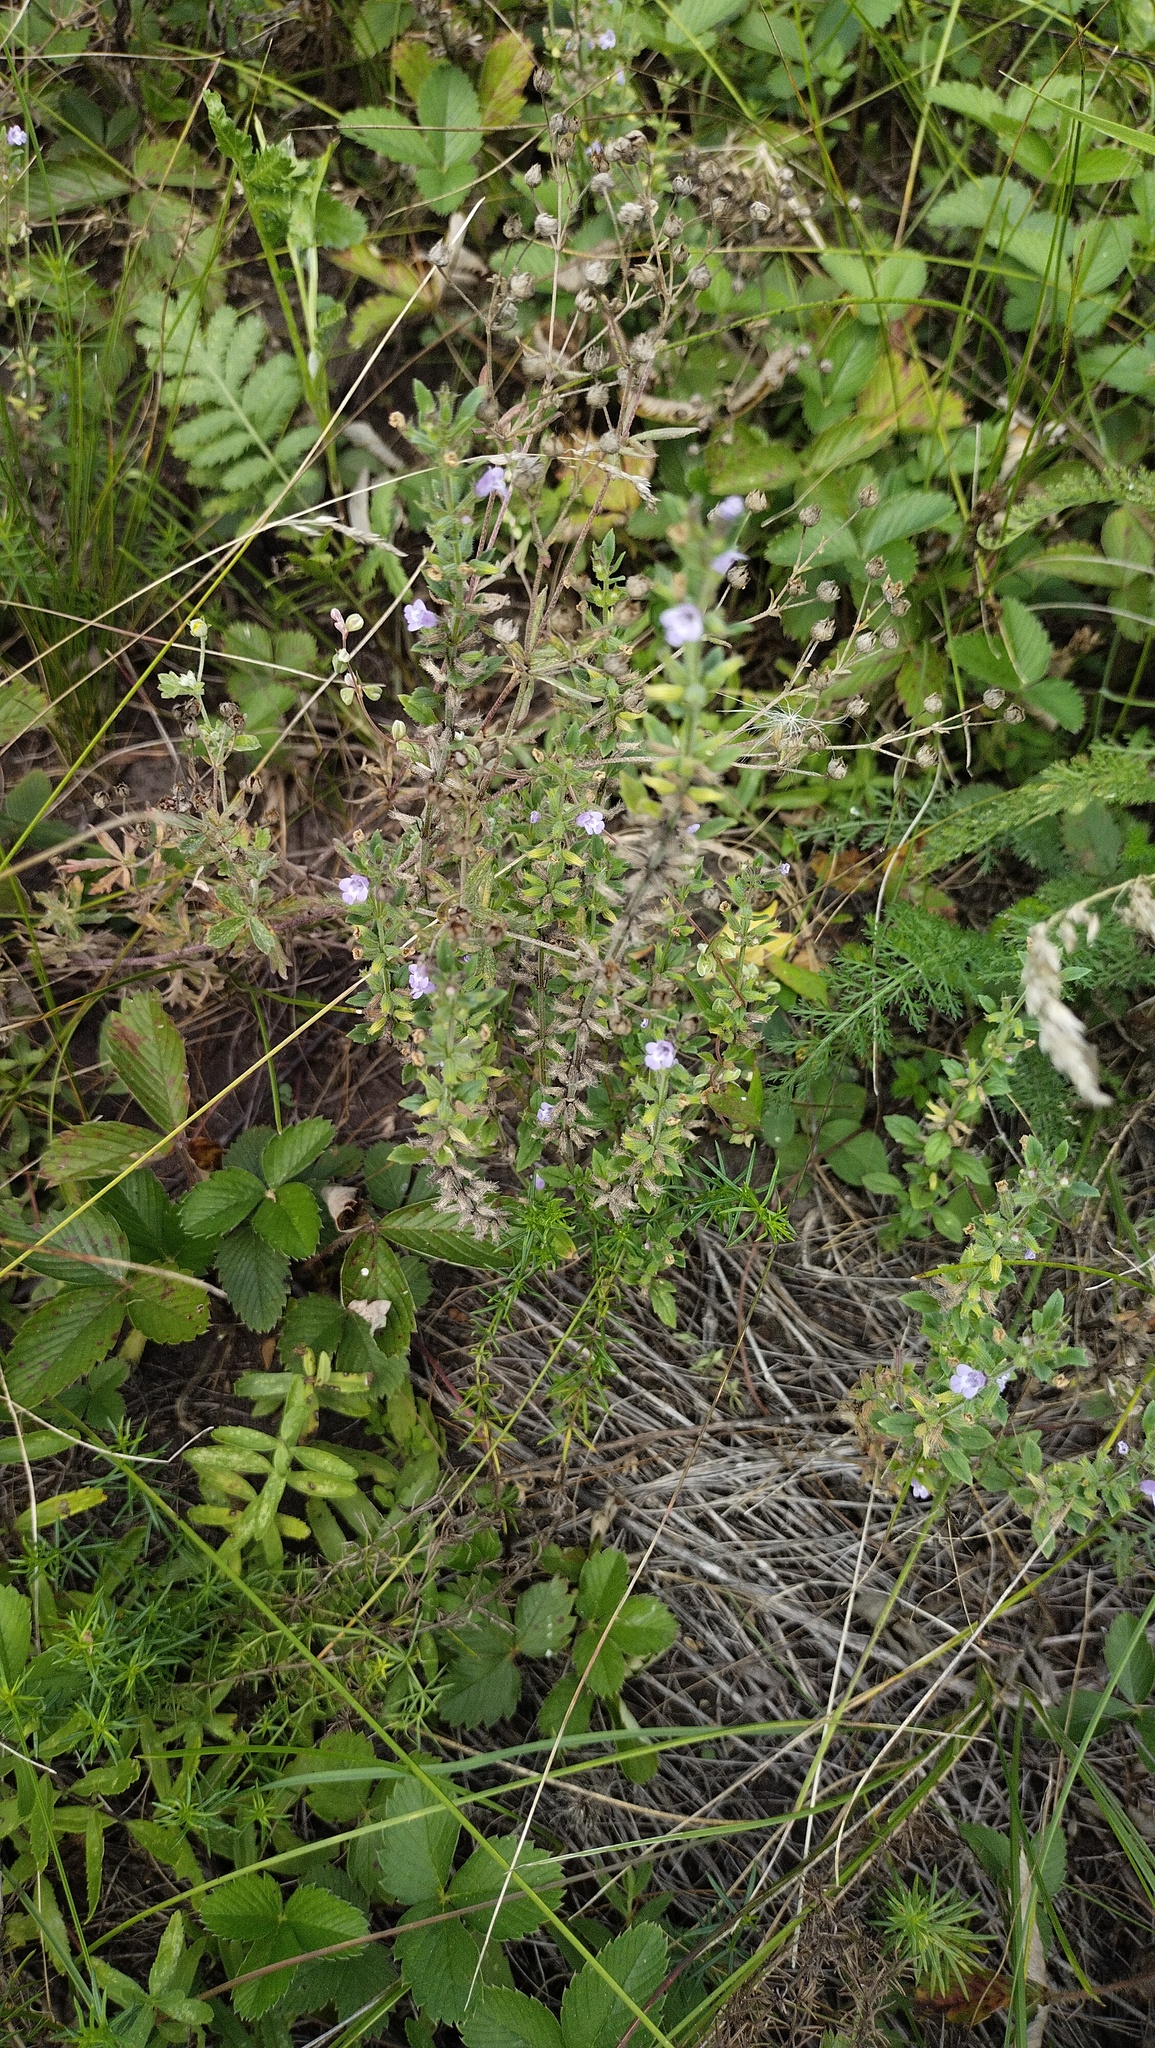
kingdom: Plantae
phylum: Tracheophyta
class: Magnoliopsida
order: Lamiales
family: Lamiaceae
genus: Clinopodium
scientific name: Clinopodium acinos
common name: Basil thyme
